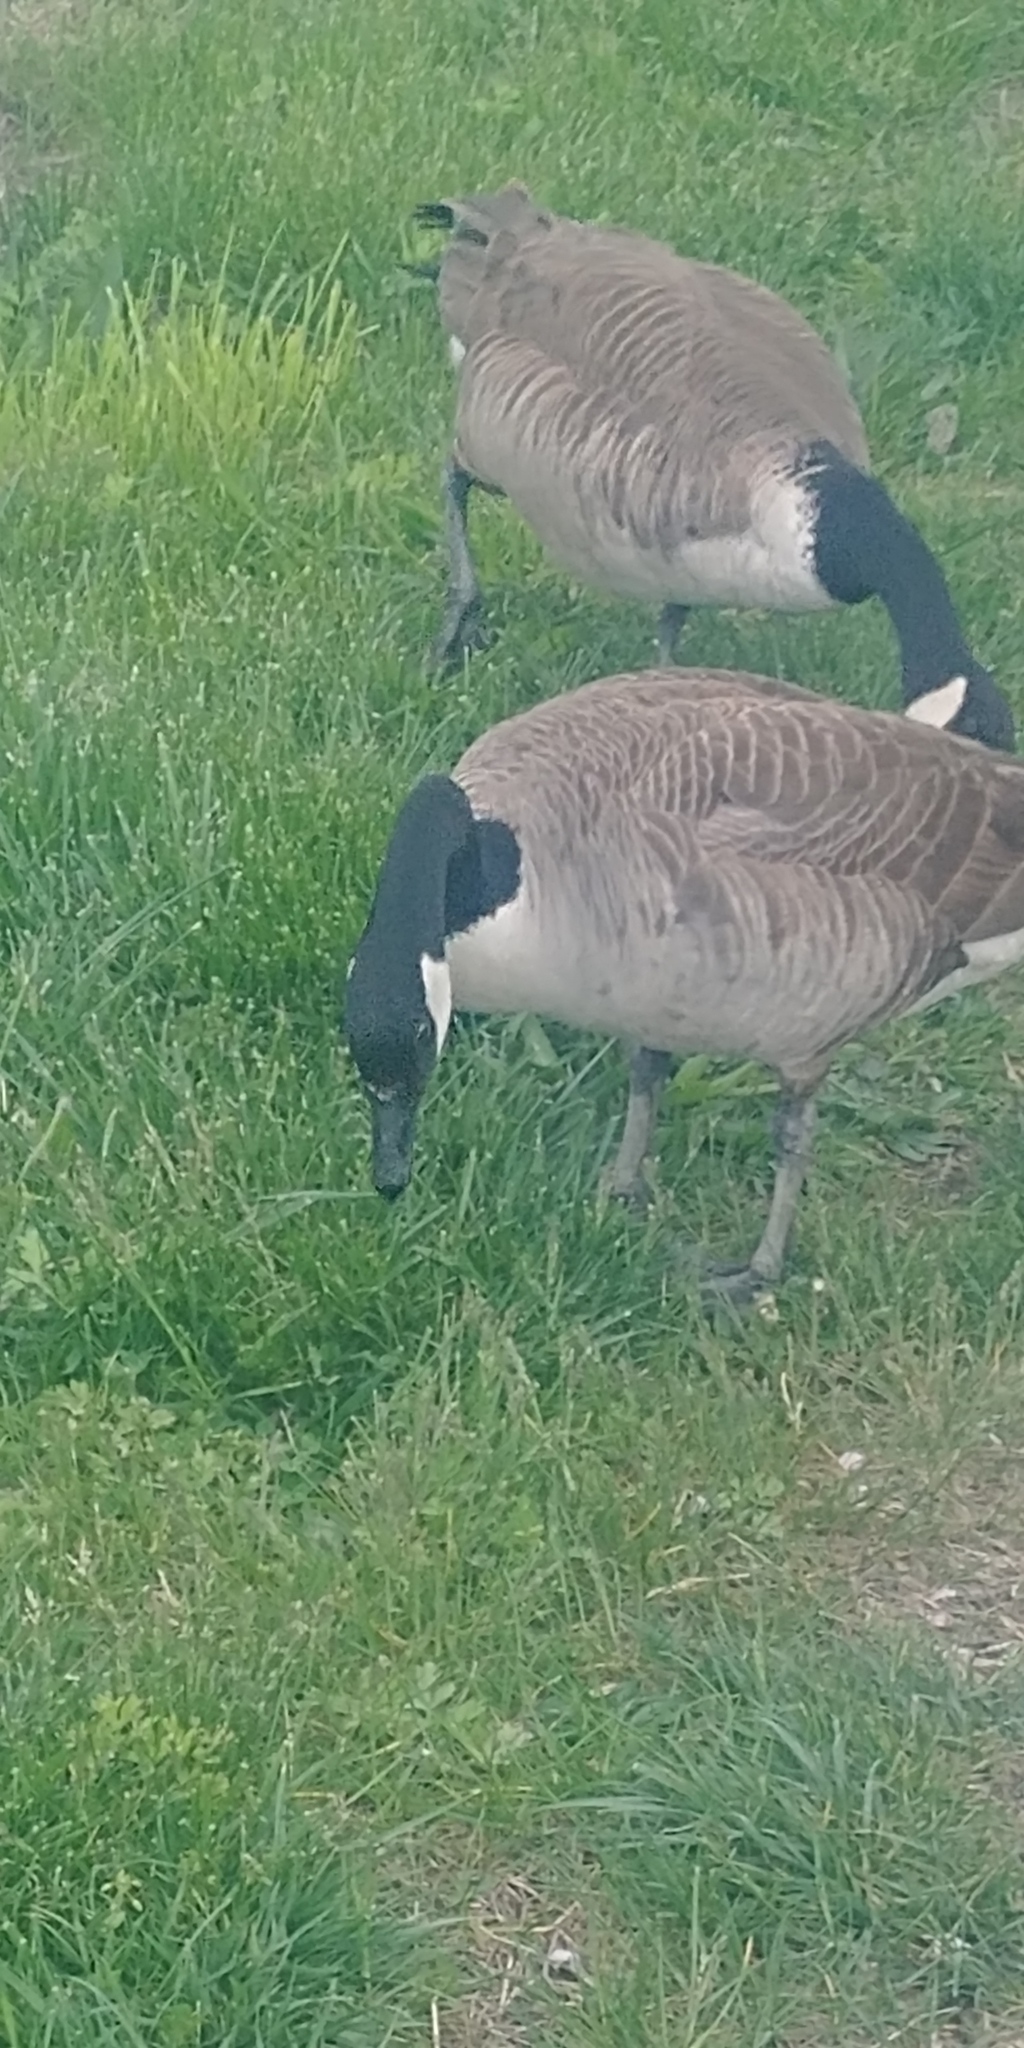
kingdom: Animalia
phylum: Chordata
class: Aves
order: Anseriformes
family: Anatidae
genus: Branta
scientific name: Branta canadensis
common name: Canada goose
